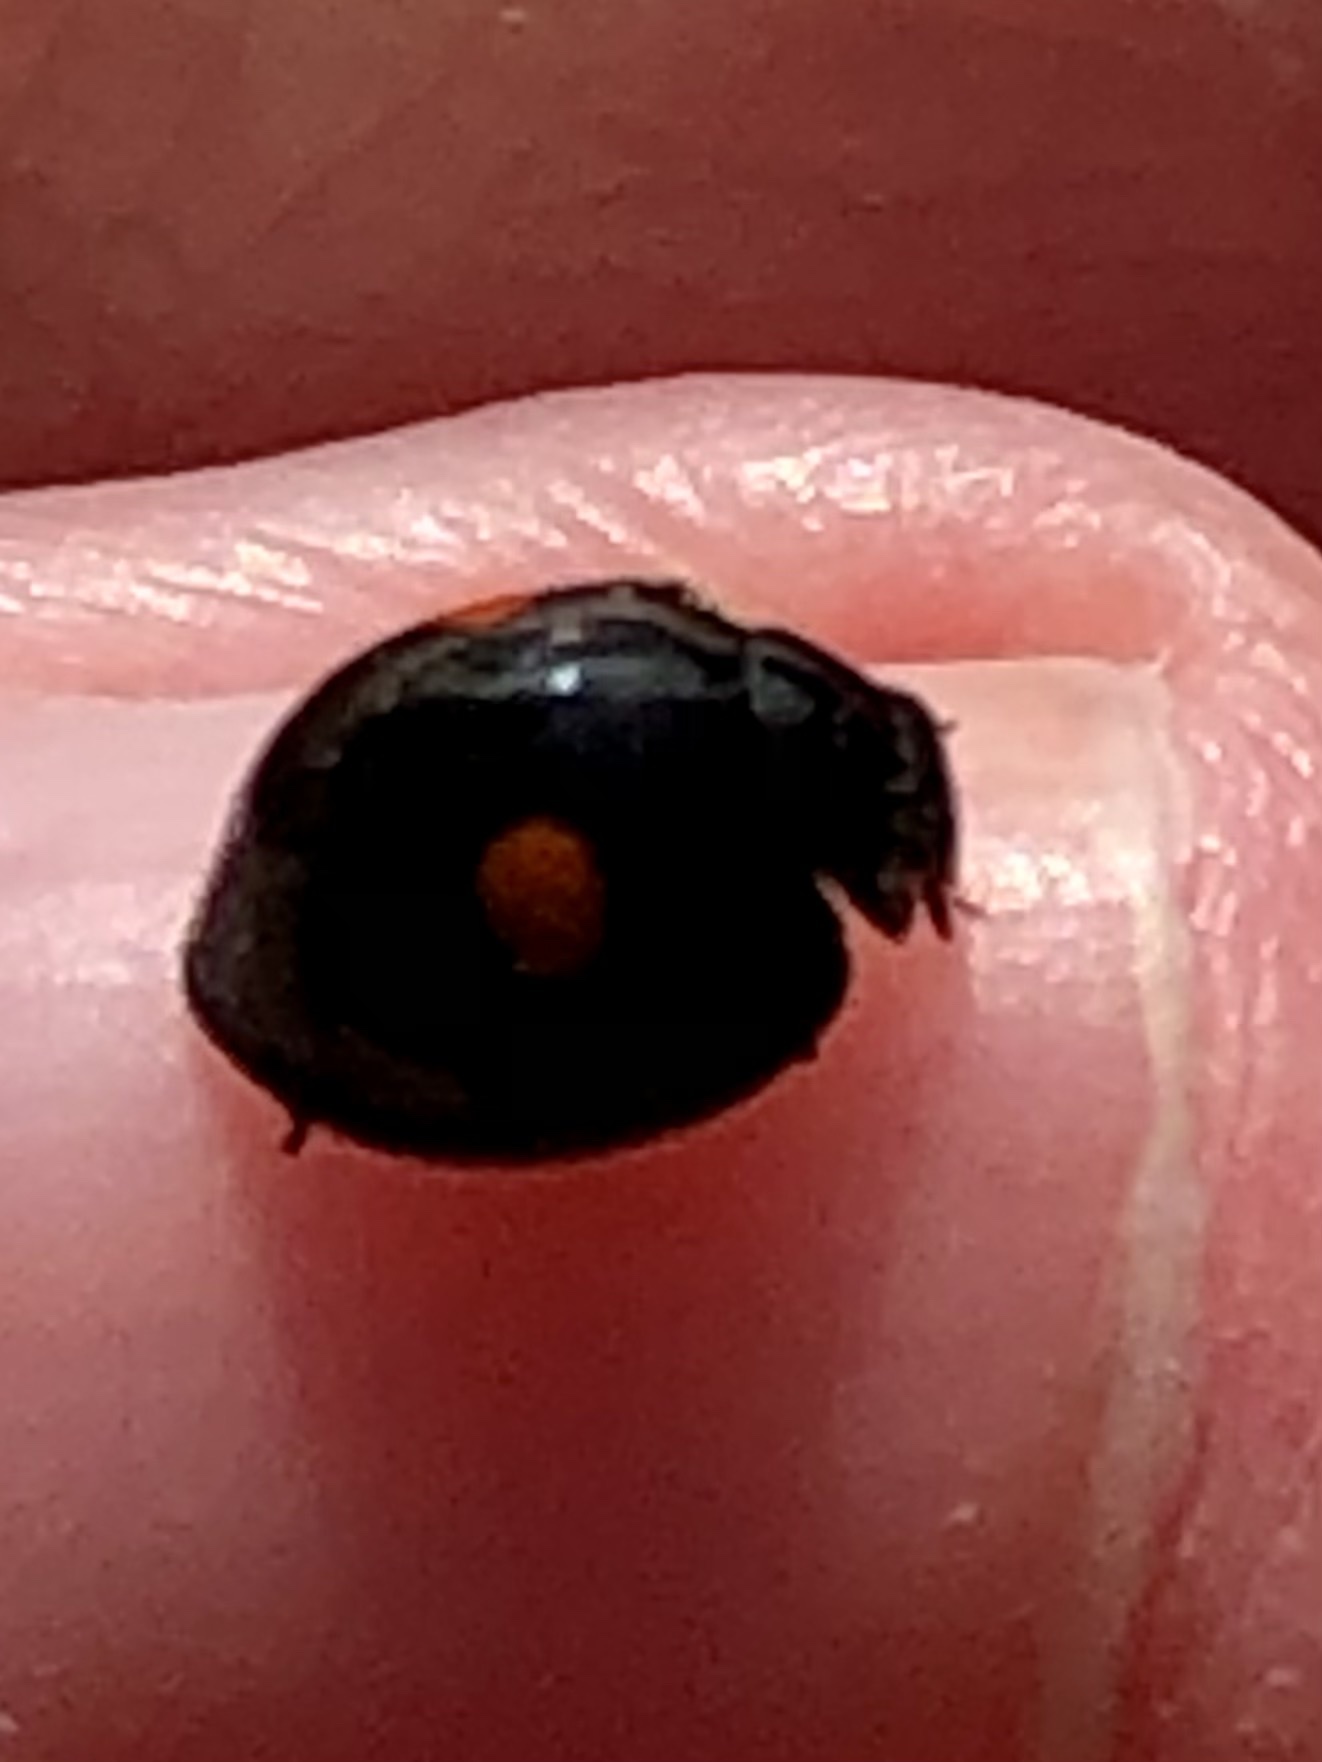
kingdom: Animalia
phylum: Arthropoda
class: Insecta
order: Coleoptera
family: Coccinellidae
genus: Chilocorus
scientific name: Chilocorus stigma
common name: Twicestabbed lady beetle
